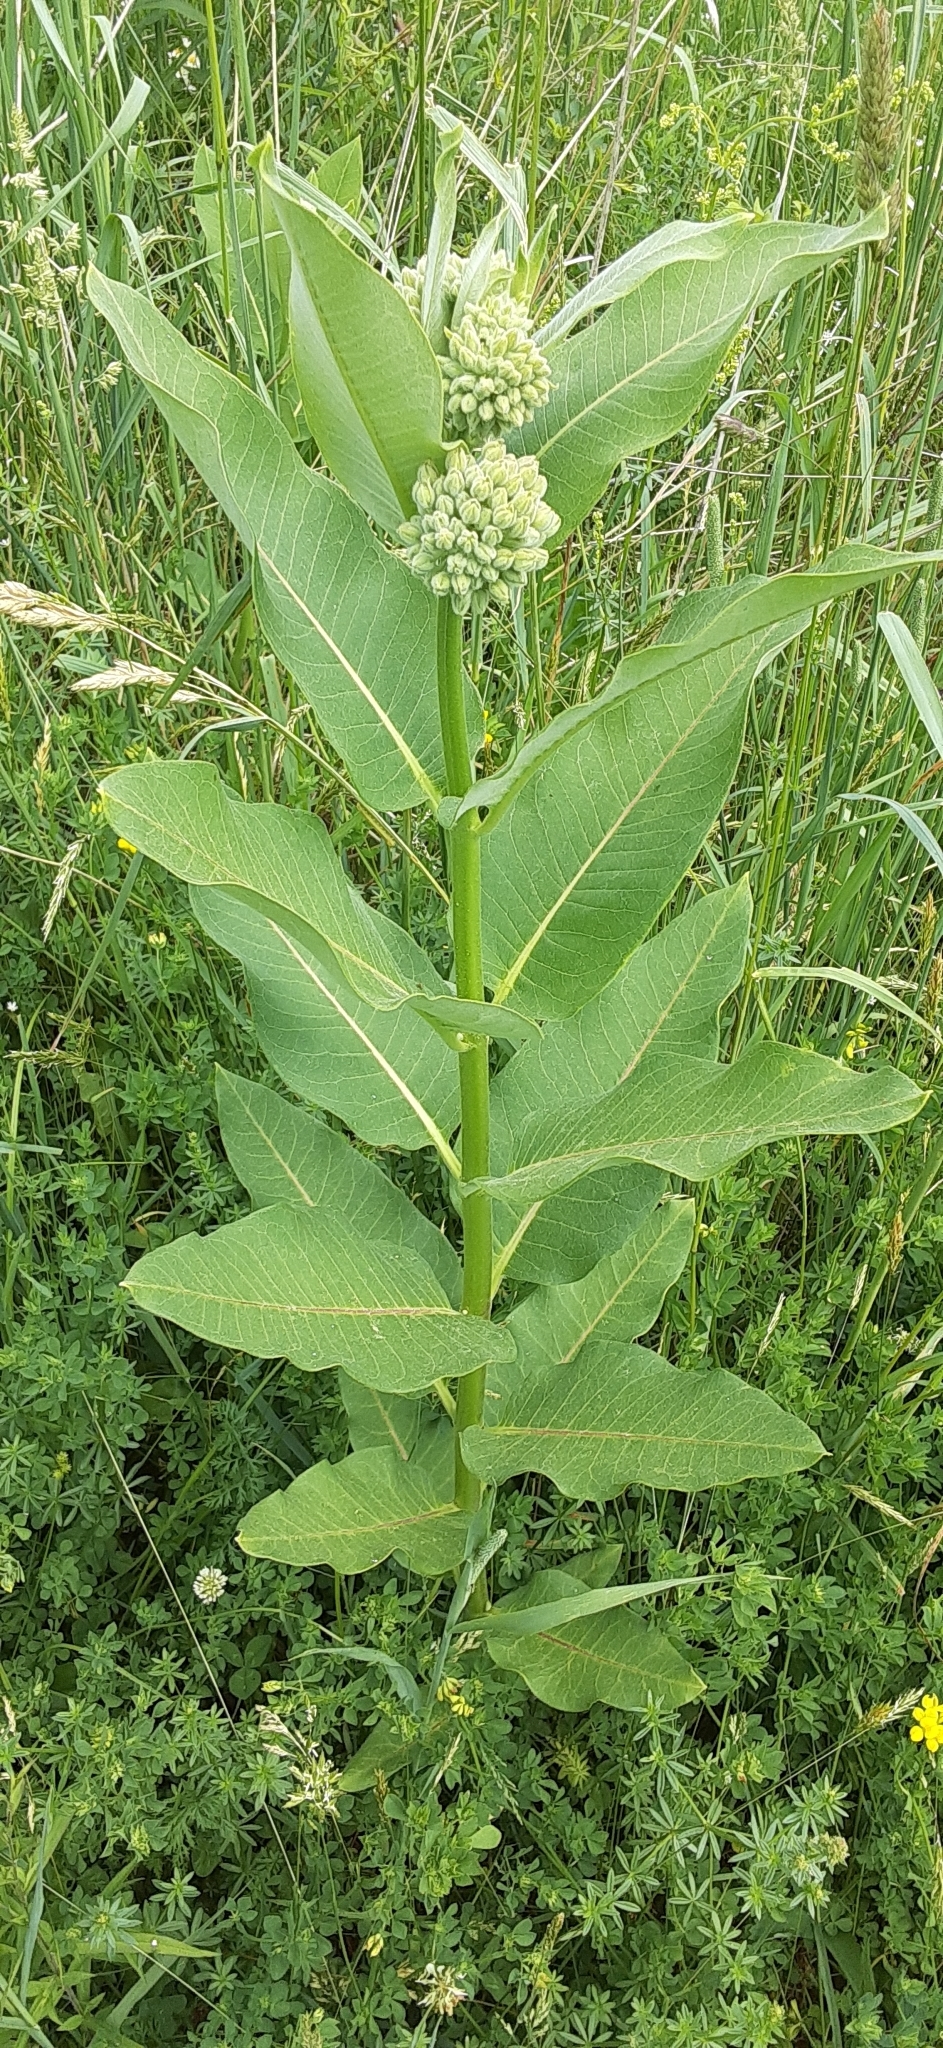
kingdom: Plantae
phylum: Tracheophyta
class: Magnoliopsida
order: Gentianales
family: Apocynaceae
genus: Asclepias
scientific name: Asclepias syriaca
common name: Common milkweed
